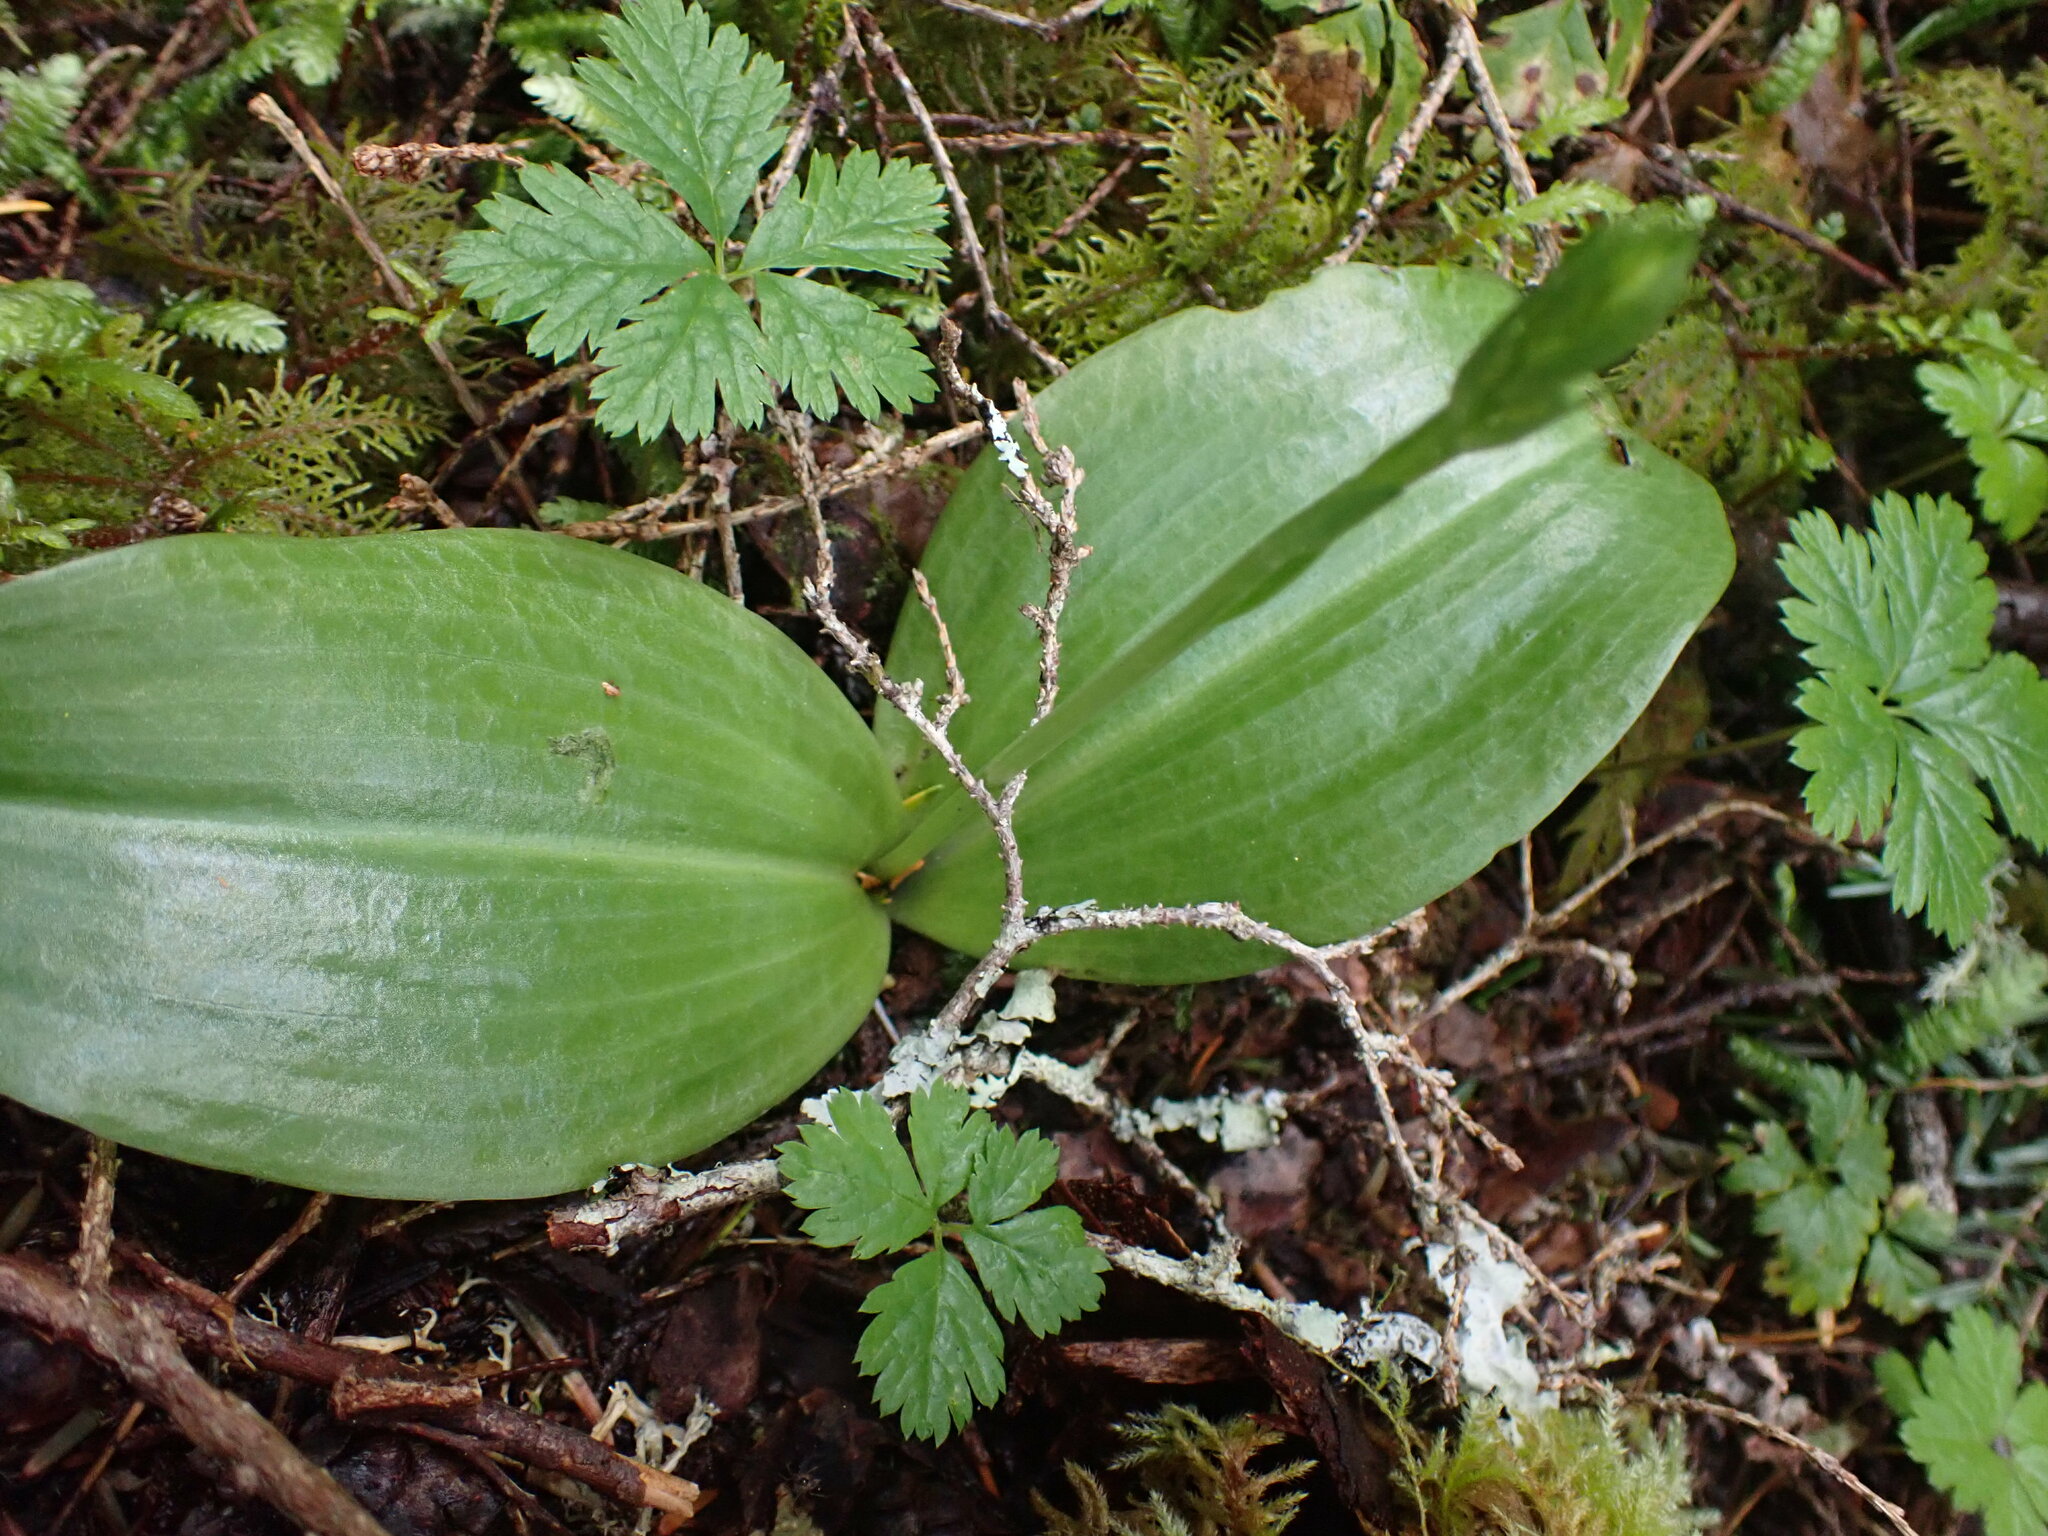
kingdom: Plantae
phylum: Tracheophyta
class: Liliopsida
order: Asparagales
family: Orchidaceae
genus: Platanthera
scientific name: Platanthera orbiculata
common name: Large round-leaved orchid
